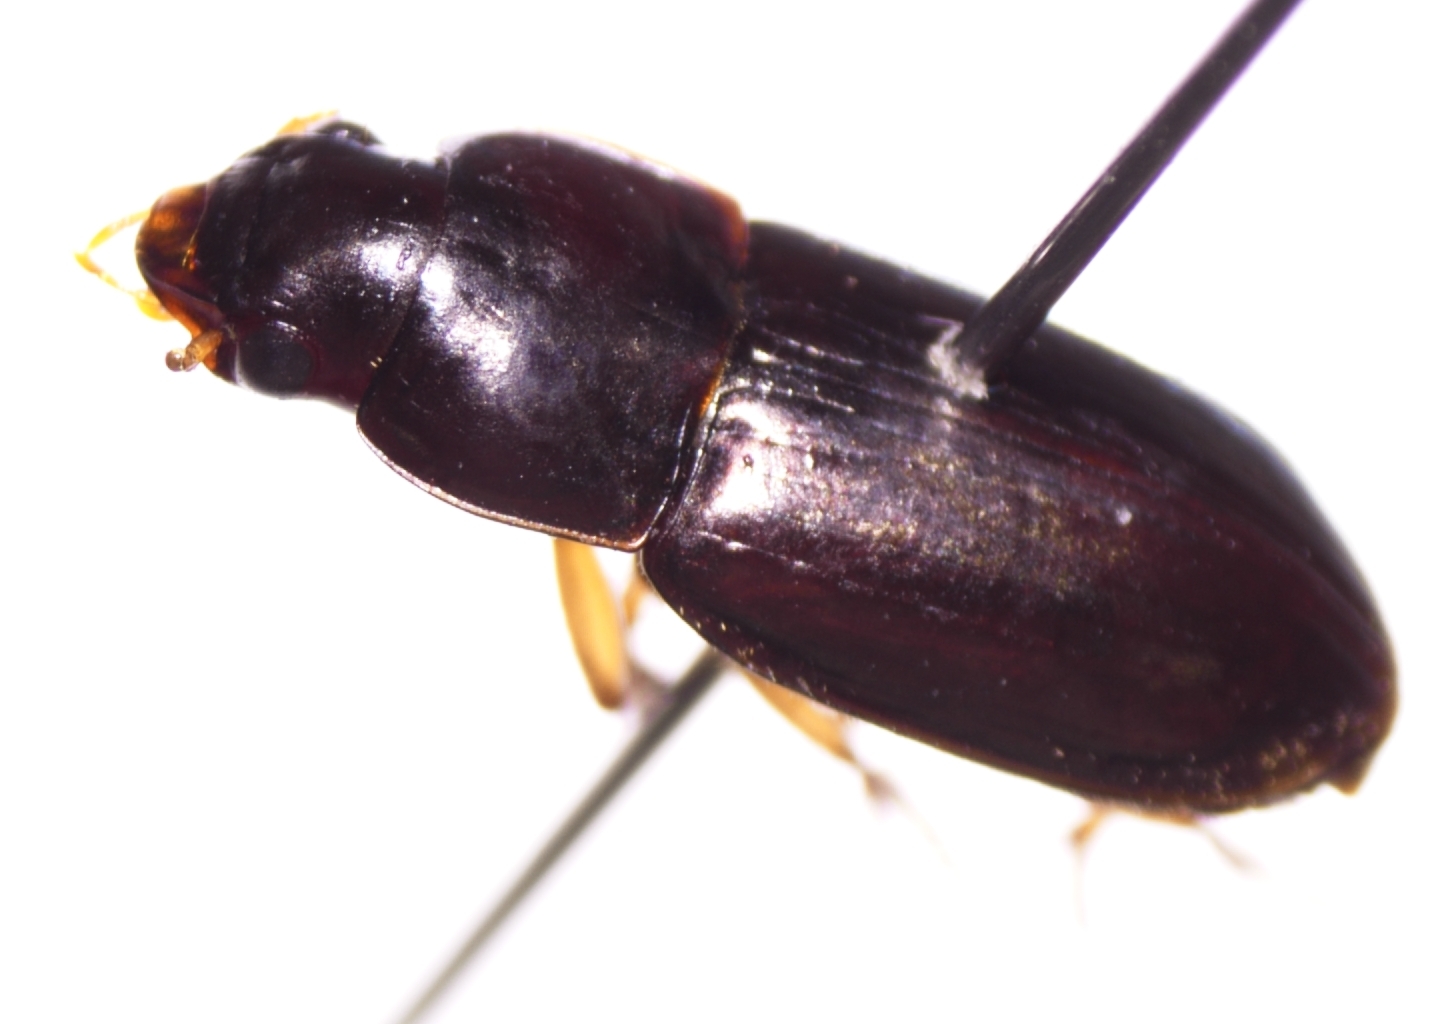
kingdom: Animalia
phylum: Arthropoda
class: Insecta
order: Coleoptera
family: Carabidae
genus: Selenophorus
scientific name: Selenophorus pyritosus
